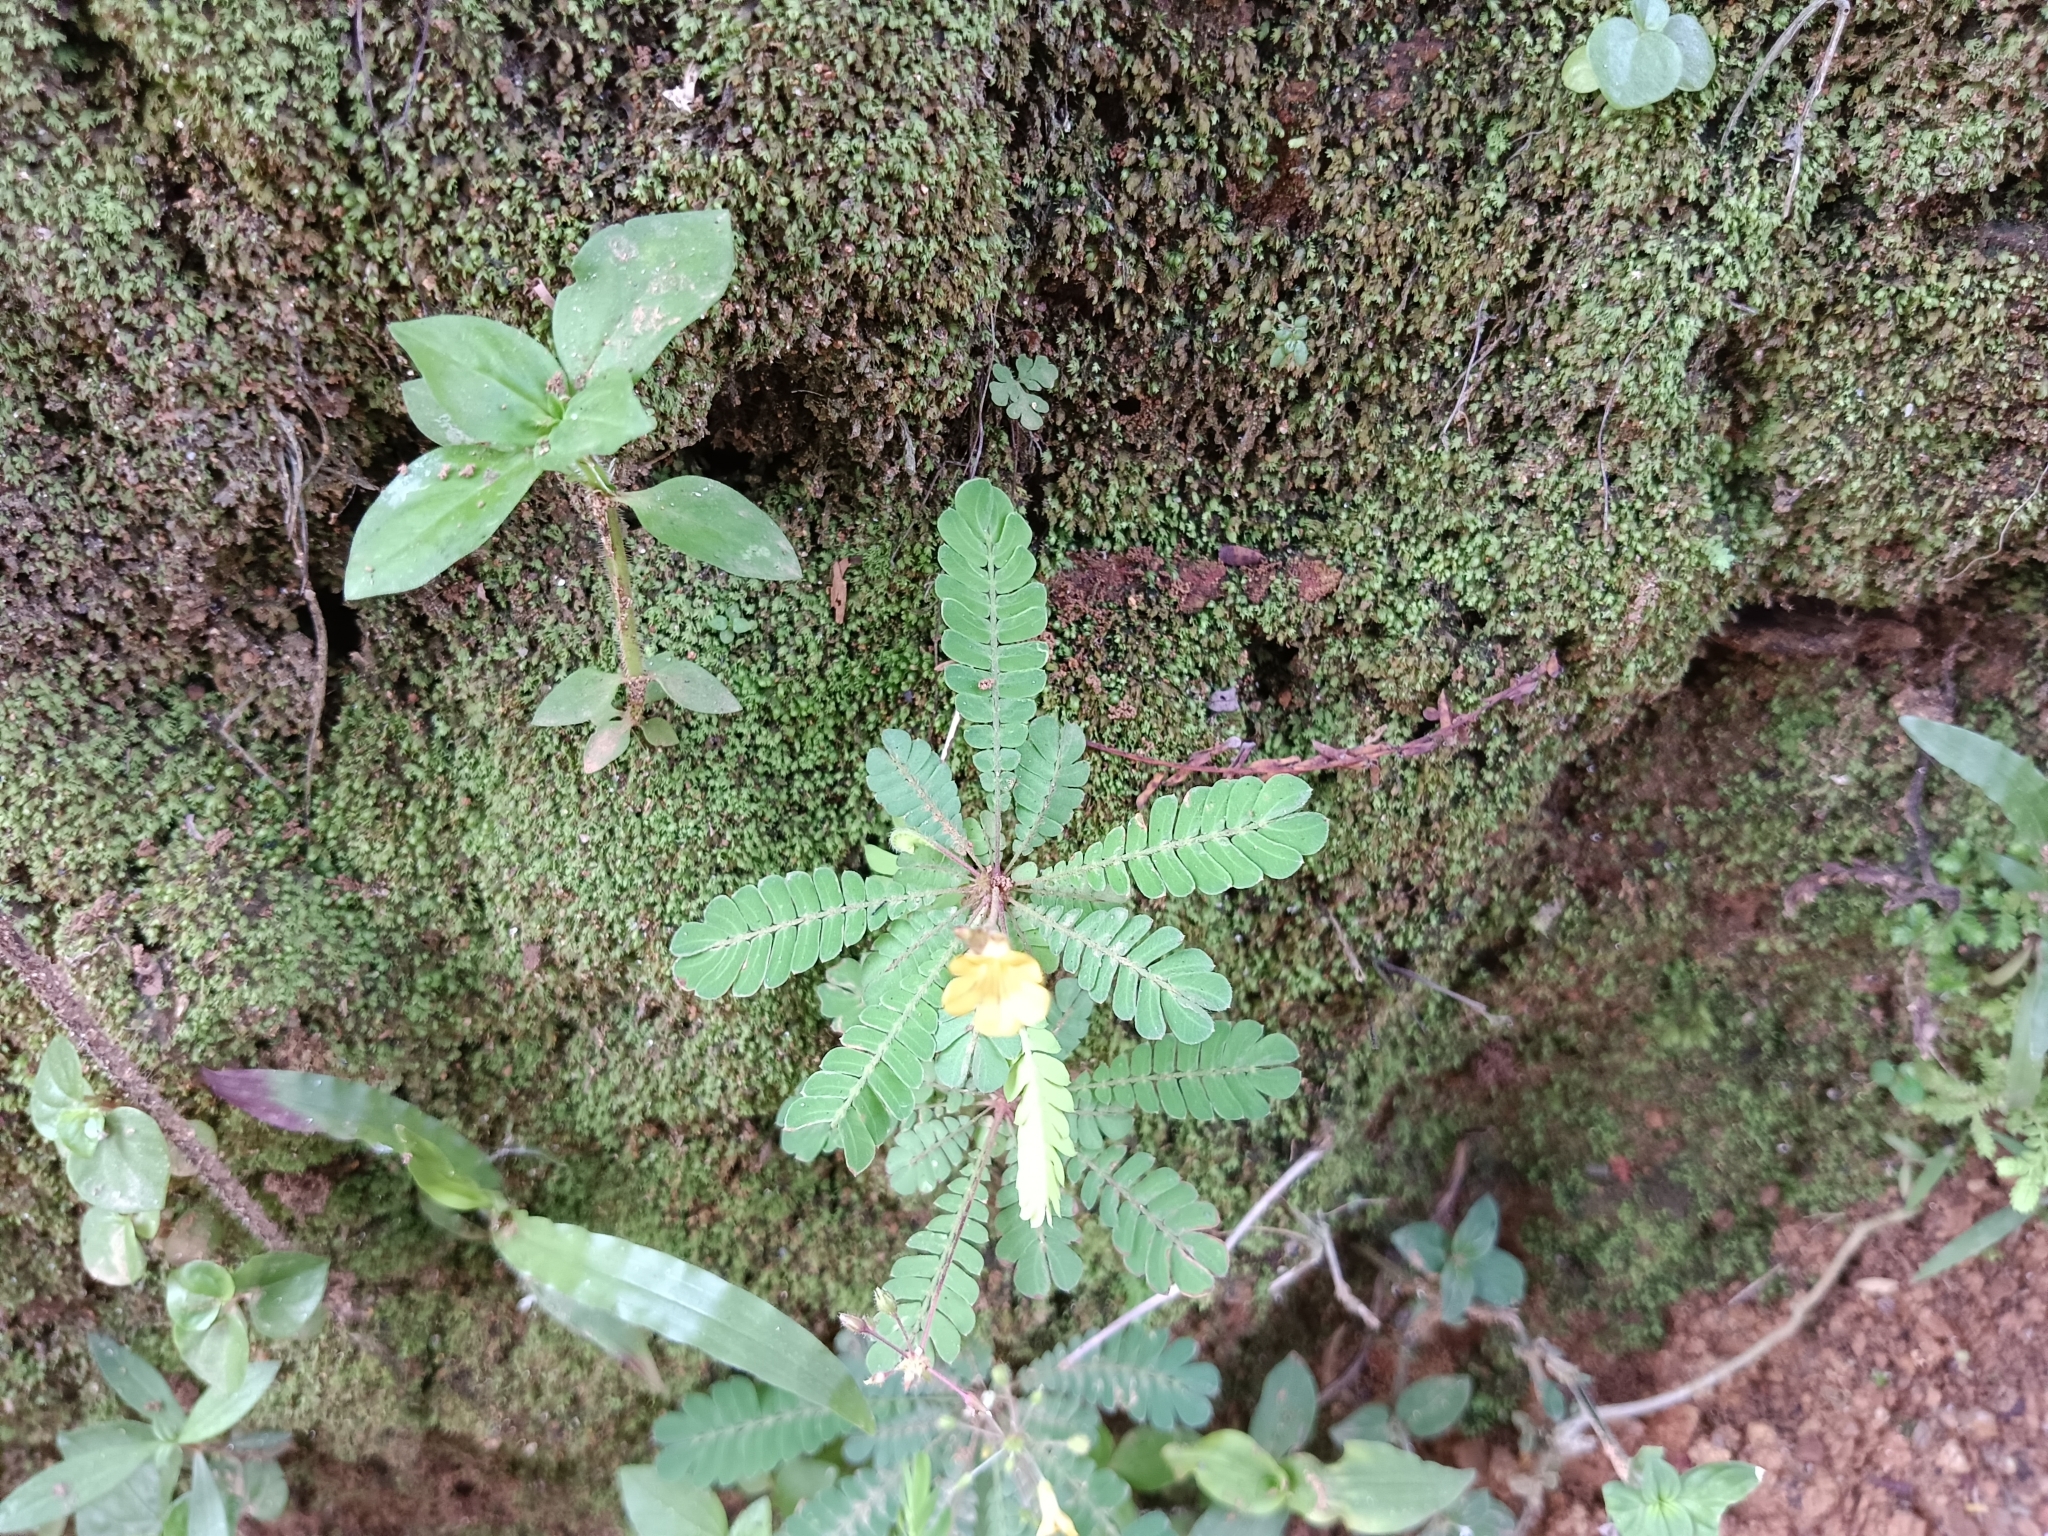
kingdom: Plantae
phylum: Tracheophyta
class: Magnoliopsida
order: Oxalidales
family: Oxalidaceae
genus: Biophytum
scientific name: Biophytum sensitivum
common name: Lifeplant
